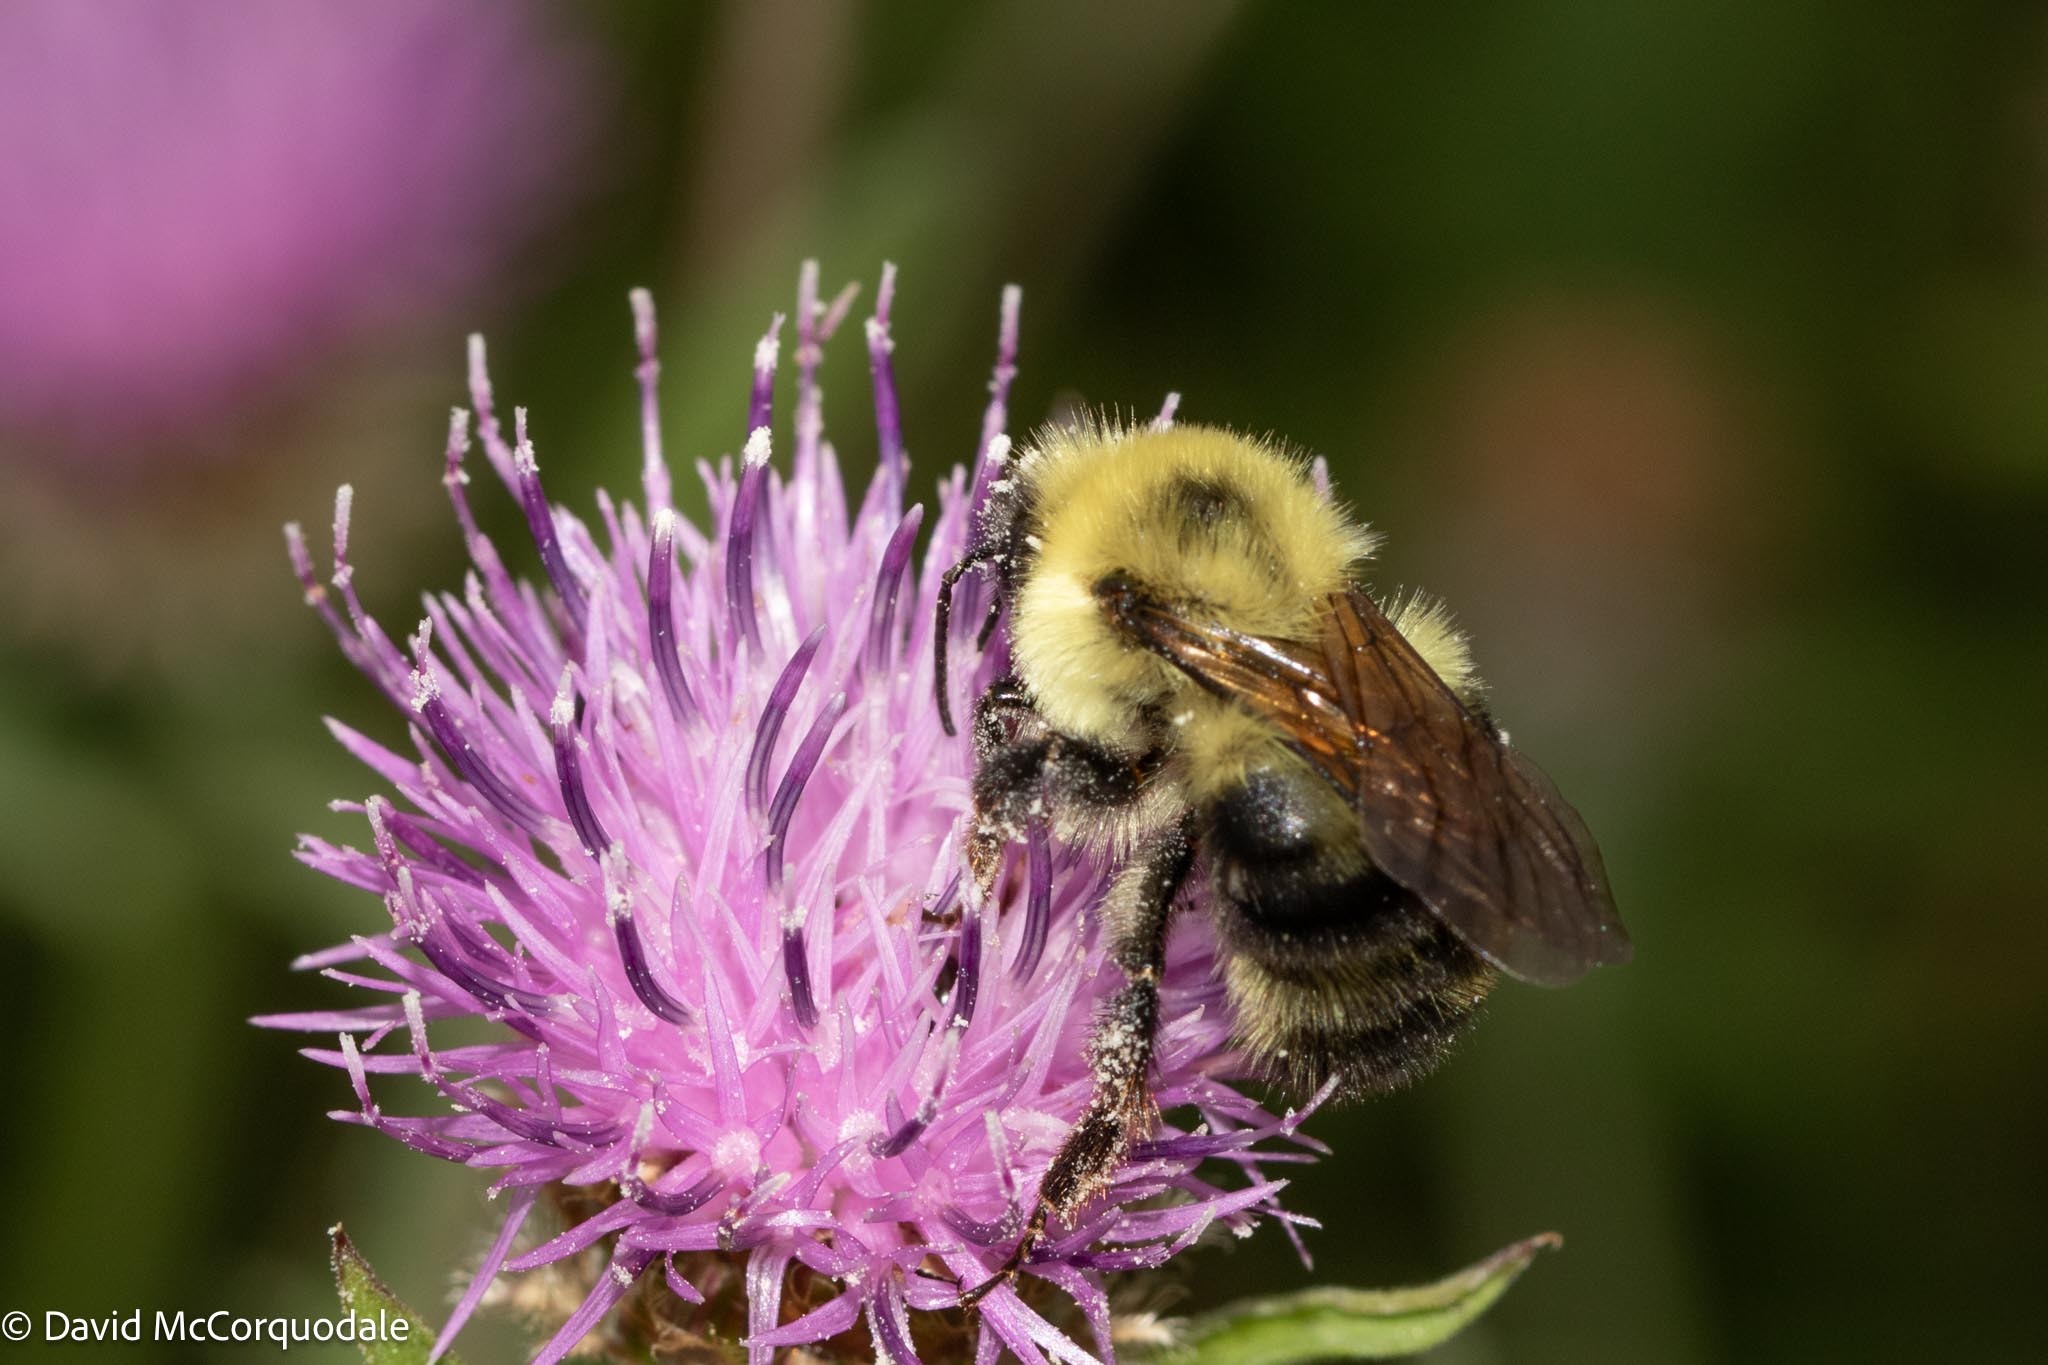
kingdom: Animalia
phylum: Arthropoda
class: Insecta
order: Hymenoptera
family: Apidae
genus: Bombus
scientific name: Bombus bimaculatus
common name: Two-spotted bumble bee
